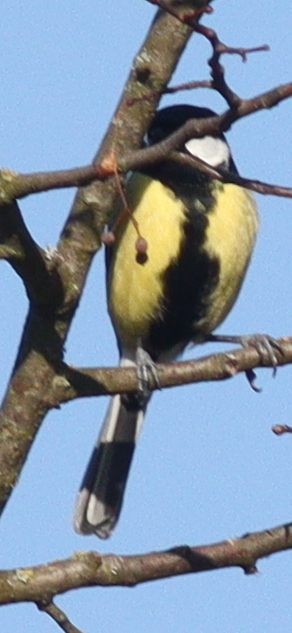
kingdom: Animalia
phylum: Chordata
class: Aves
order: Passeriformes
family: Paridae
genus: Parus
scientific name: Parus major
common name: Great tit
